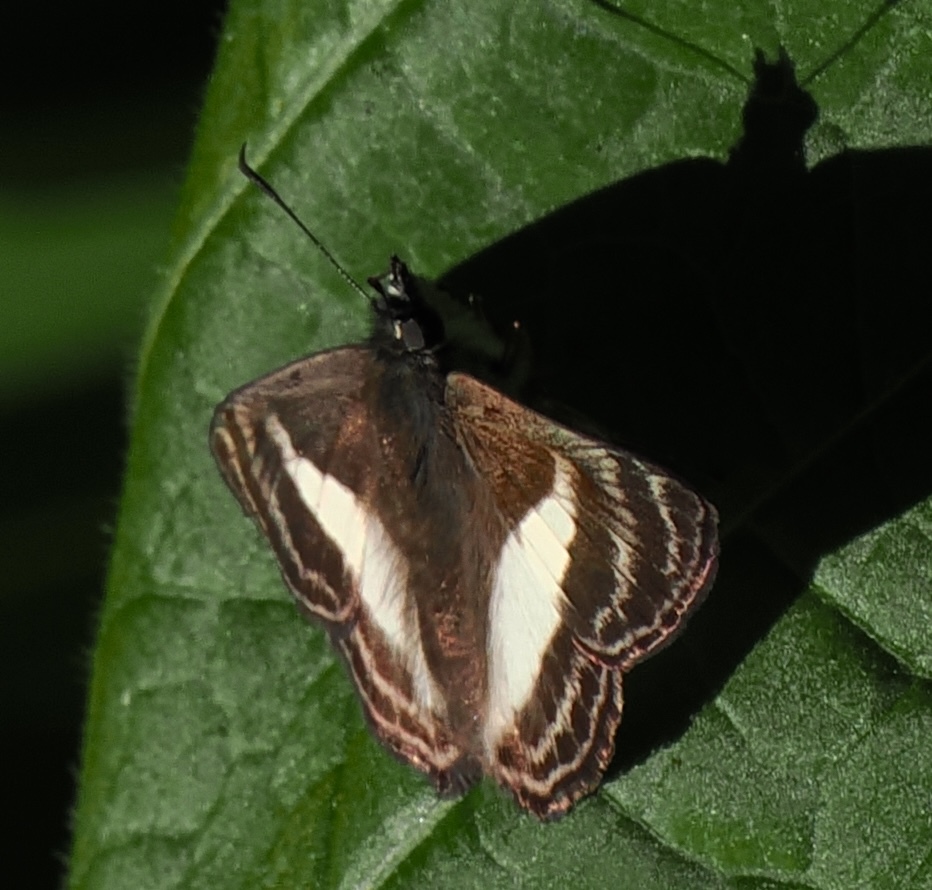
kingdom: Animalia
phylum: Arthropoda
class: Insecta
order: Lepidoptera
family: Hesperiidae
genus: Sophista
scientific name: Sophista aristoteles
